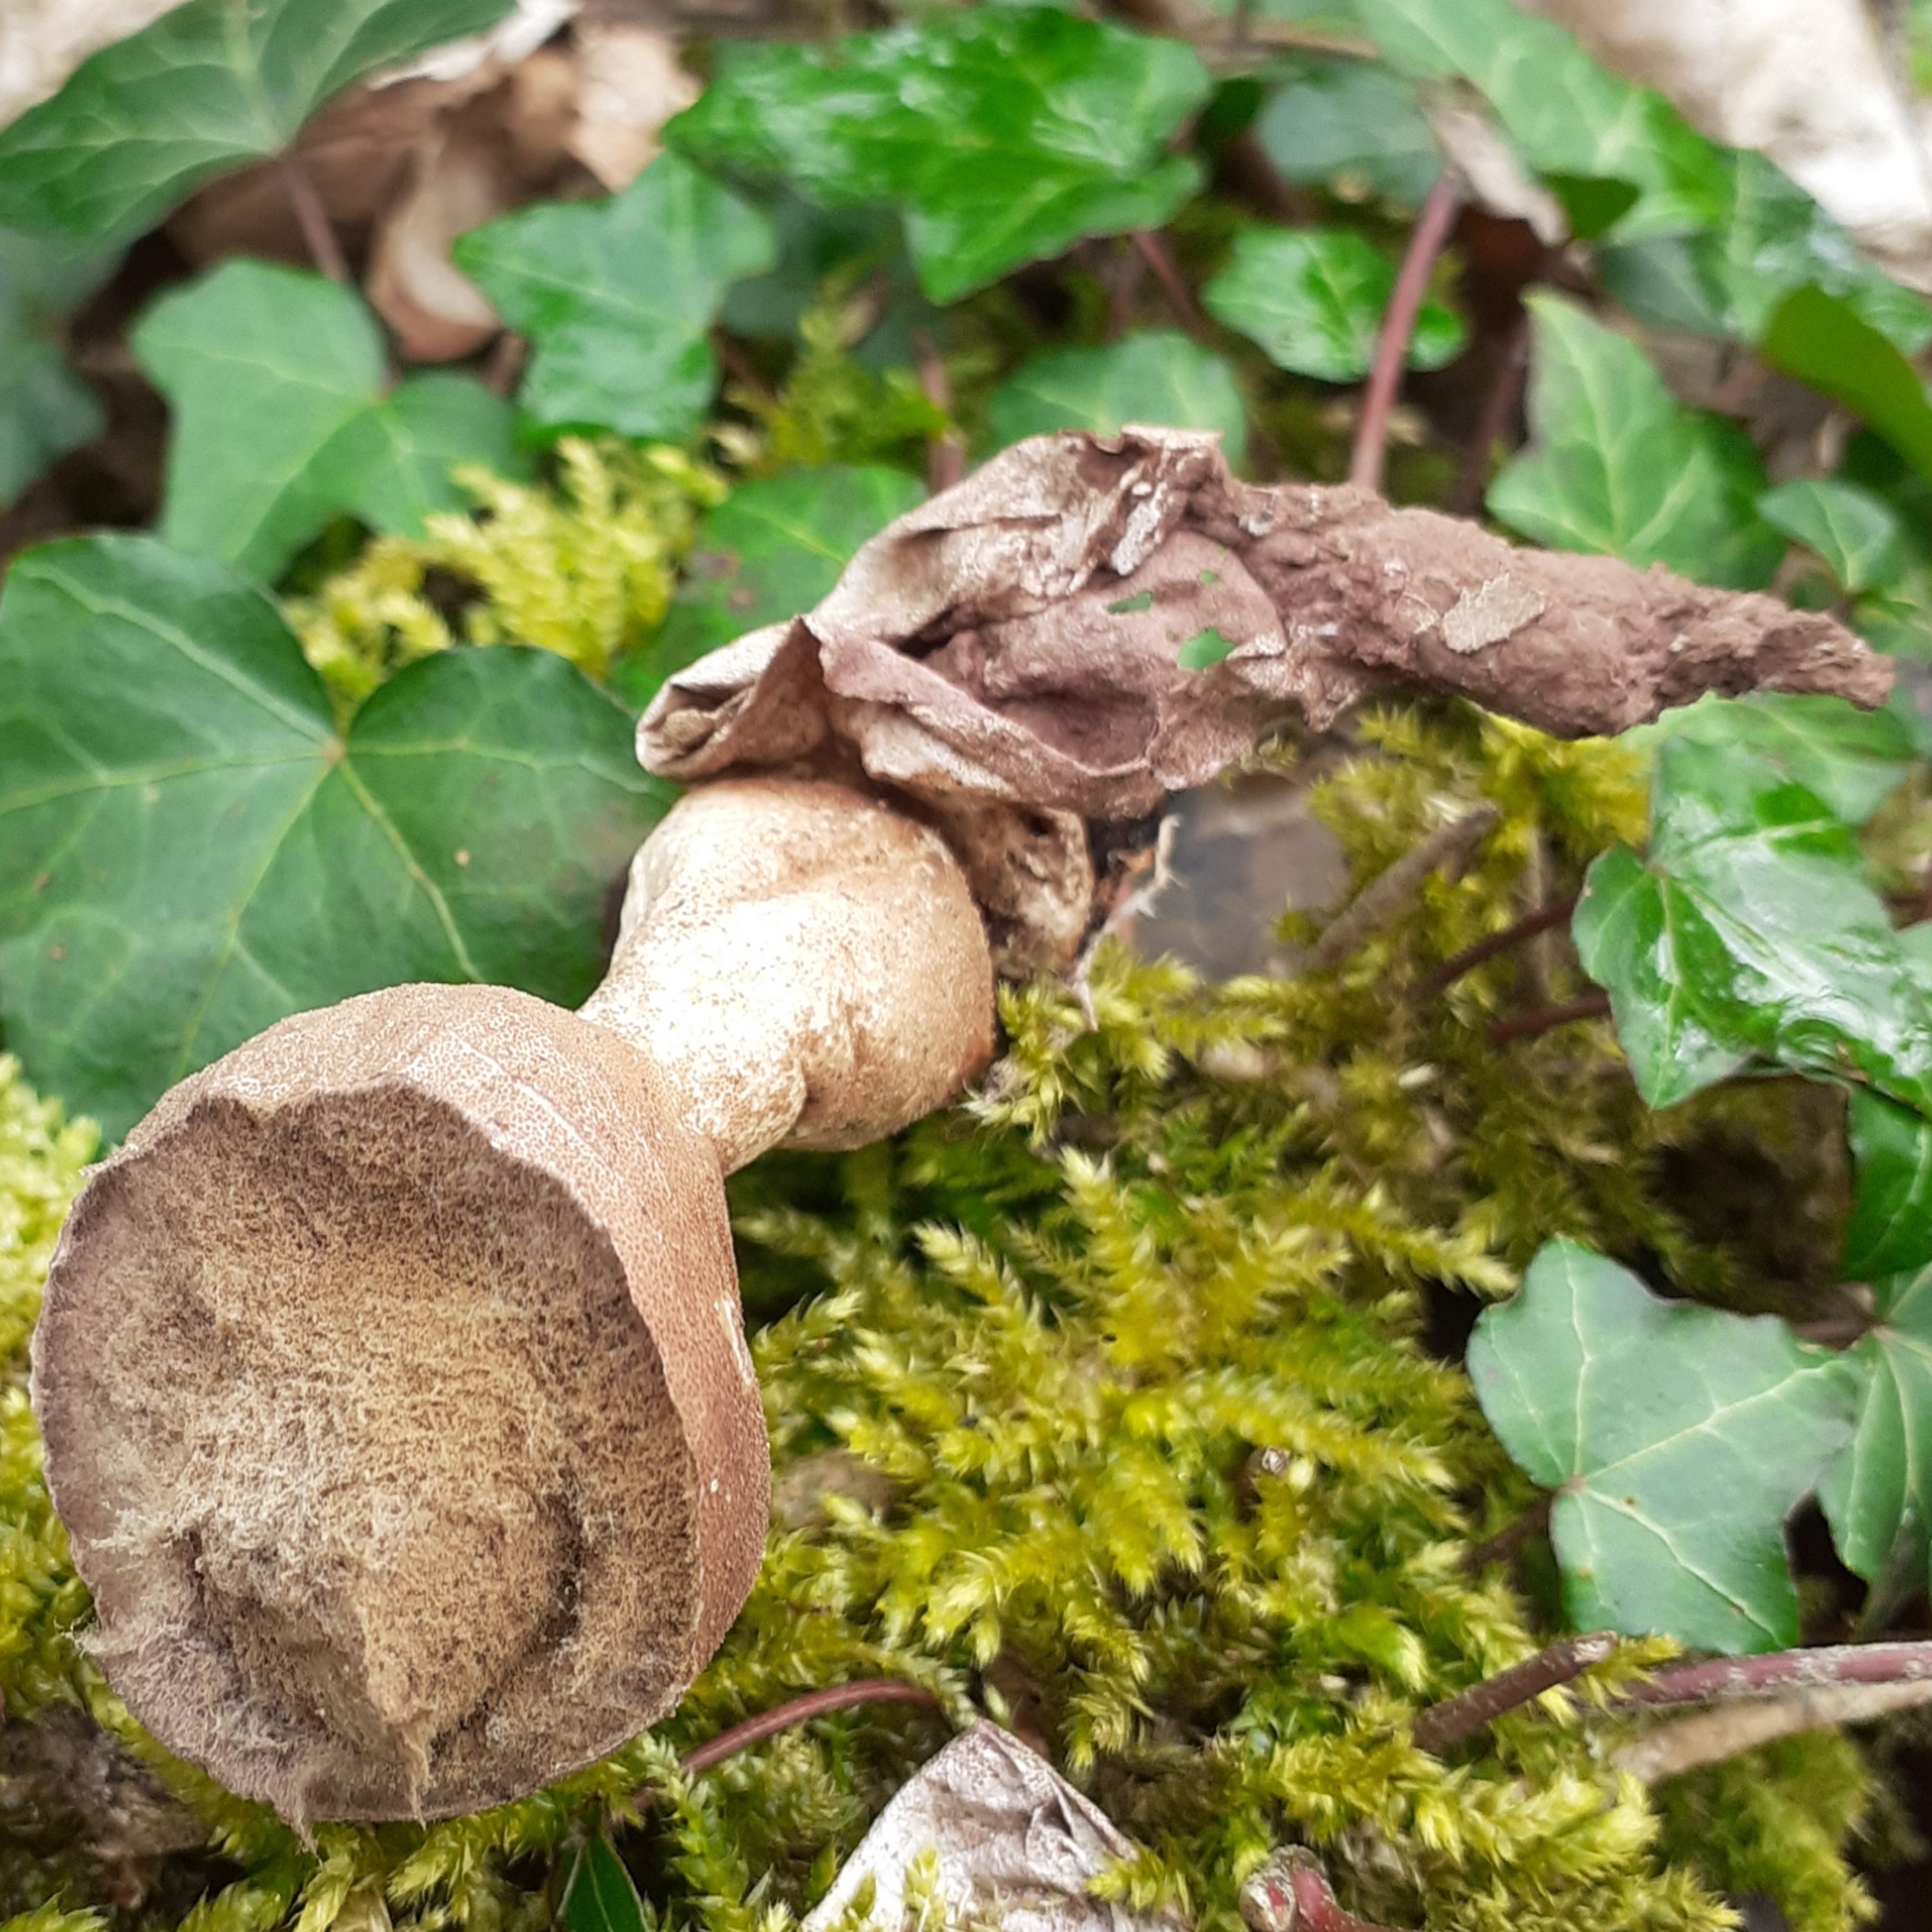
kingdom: Fungi
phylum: Basidiomycota
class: Agaricomycetes
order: Agaricales
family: Lycoperdaceae
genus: Apioperdon
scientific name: Apioperdon pyriforme
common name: Pear-shaped puffball
